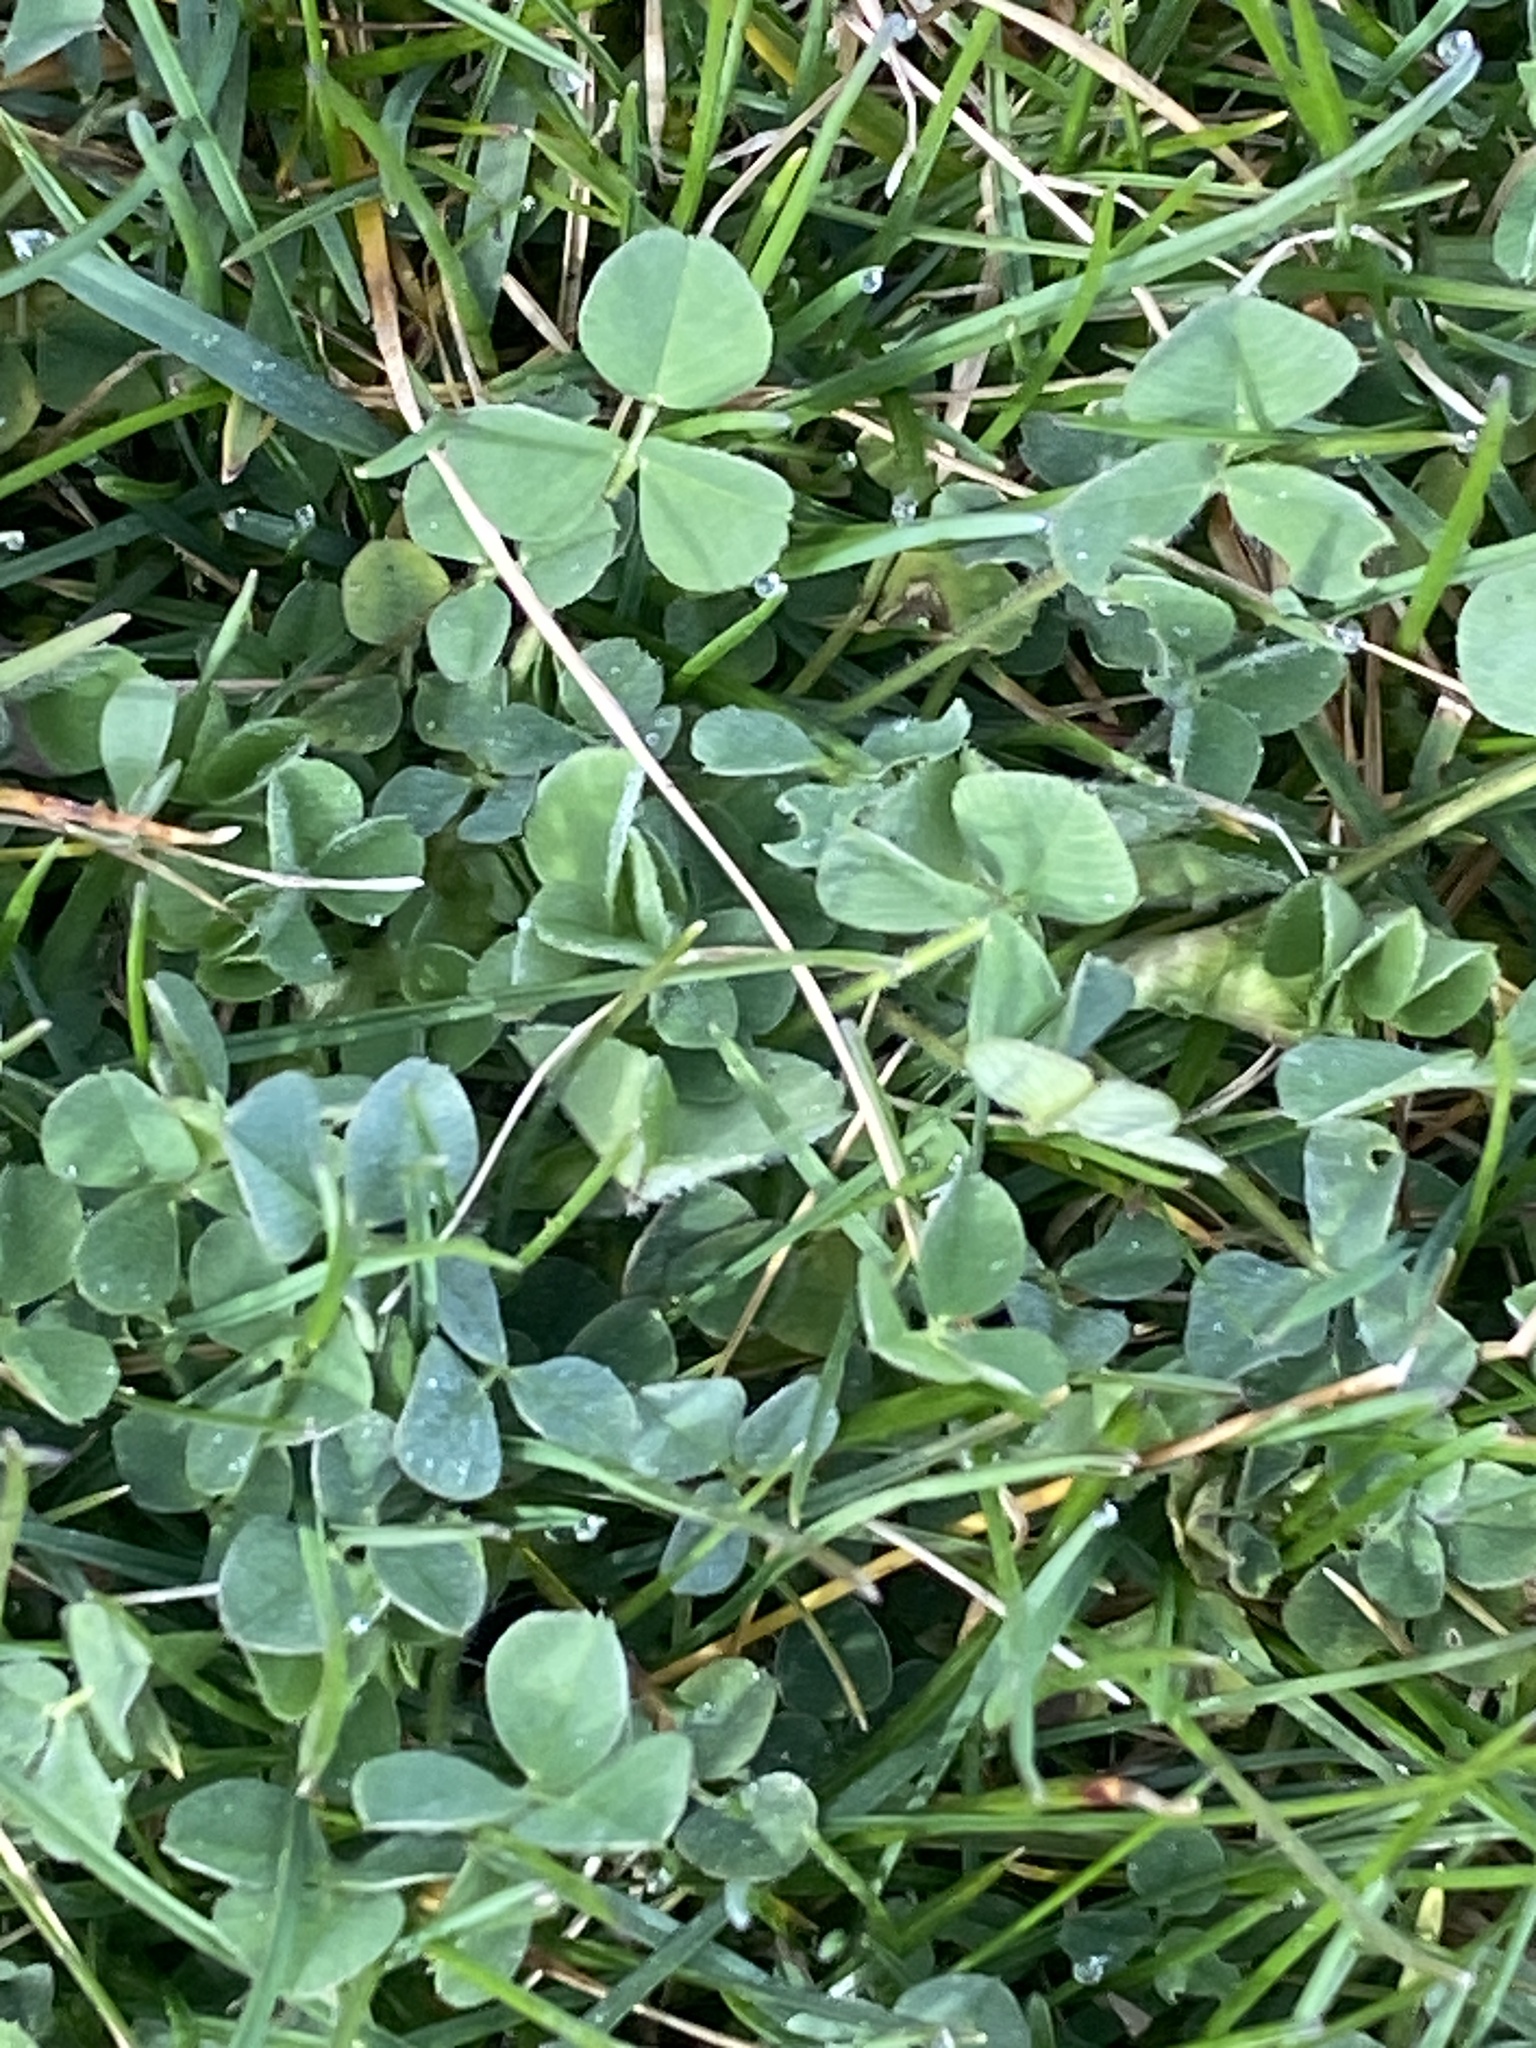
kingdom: Plantae
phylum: Tracheophyta
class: Magnoliopsida
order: Fabales
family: Fabaceae
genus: Medicago
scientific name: Medicago lupulina
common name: Black medick
